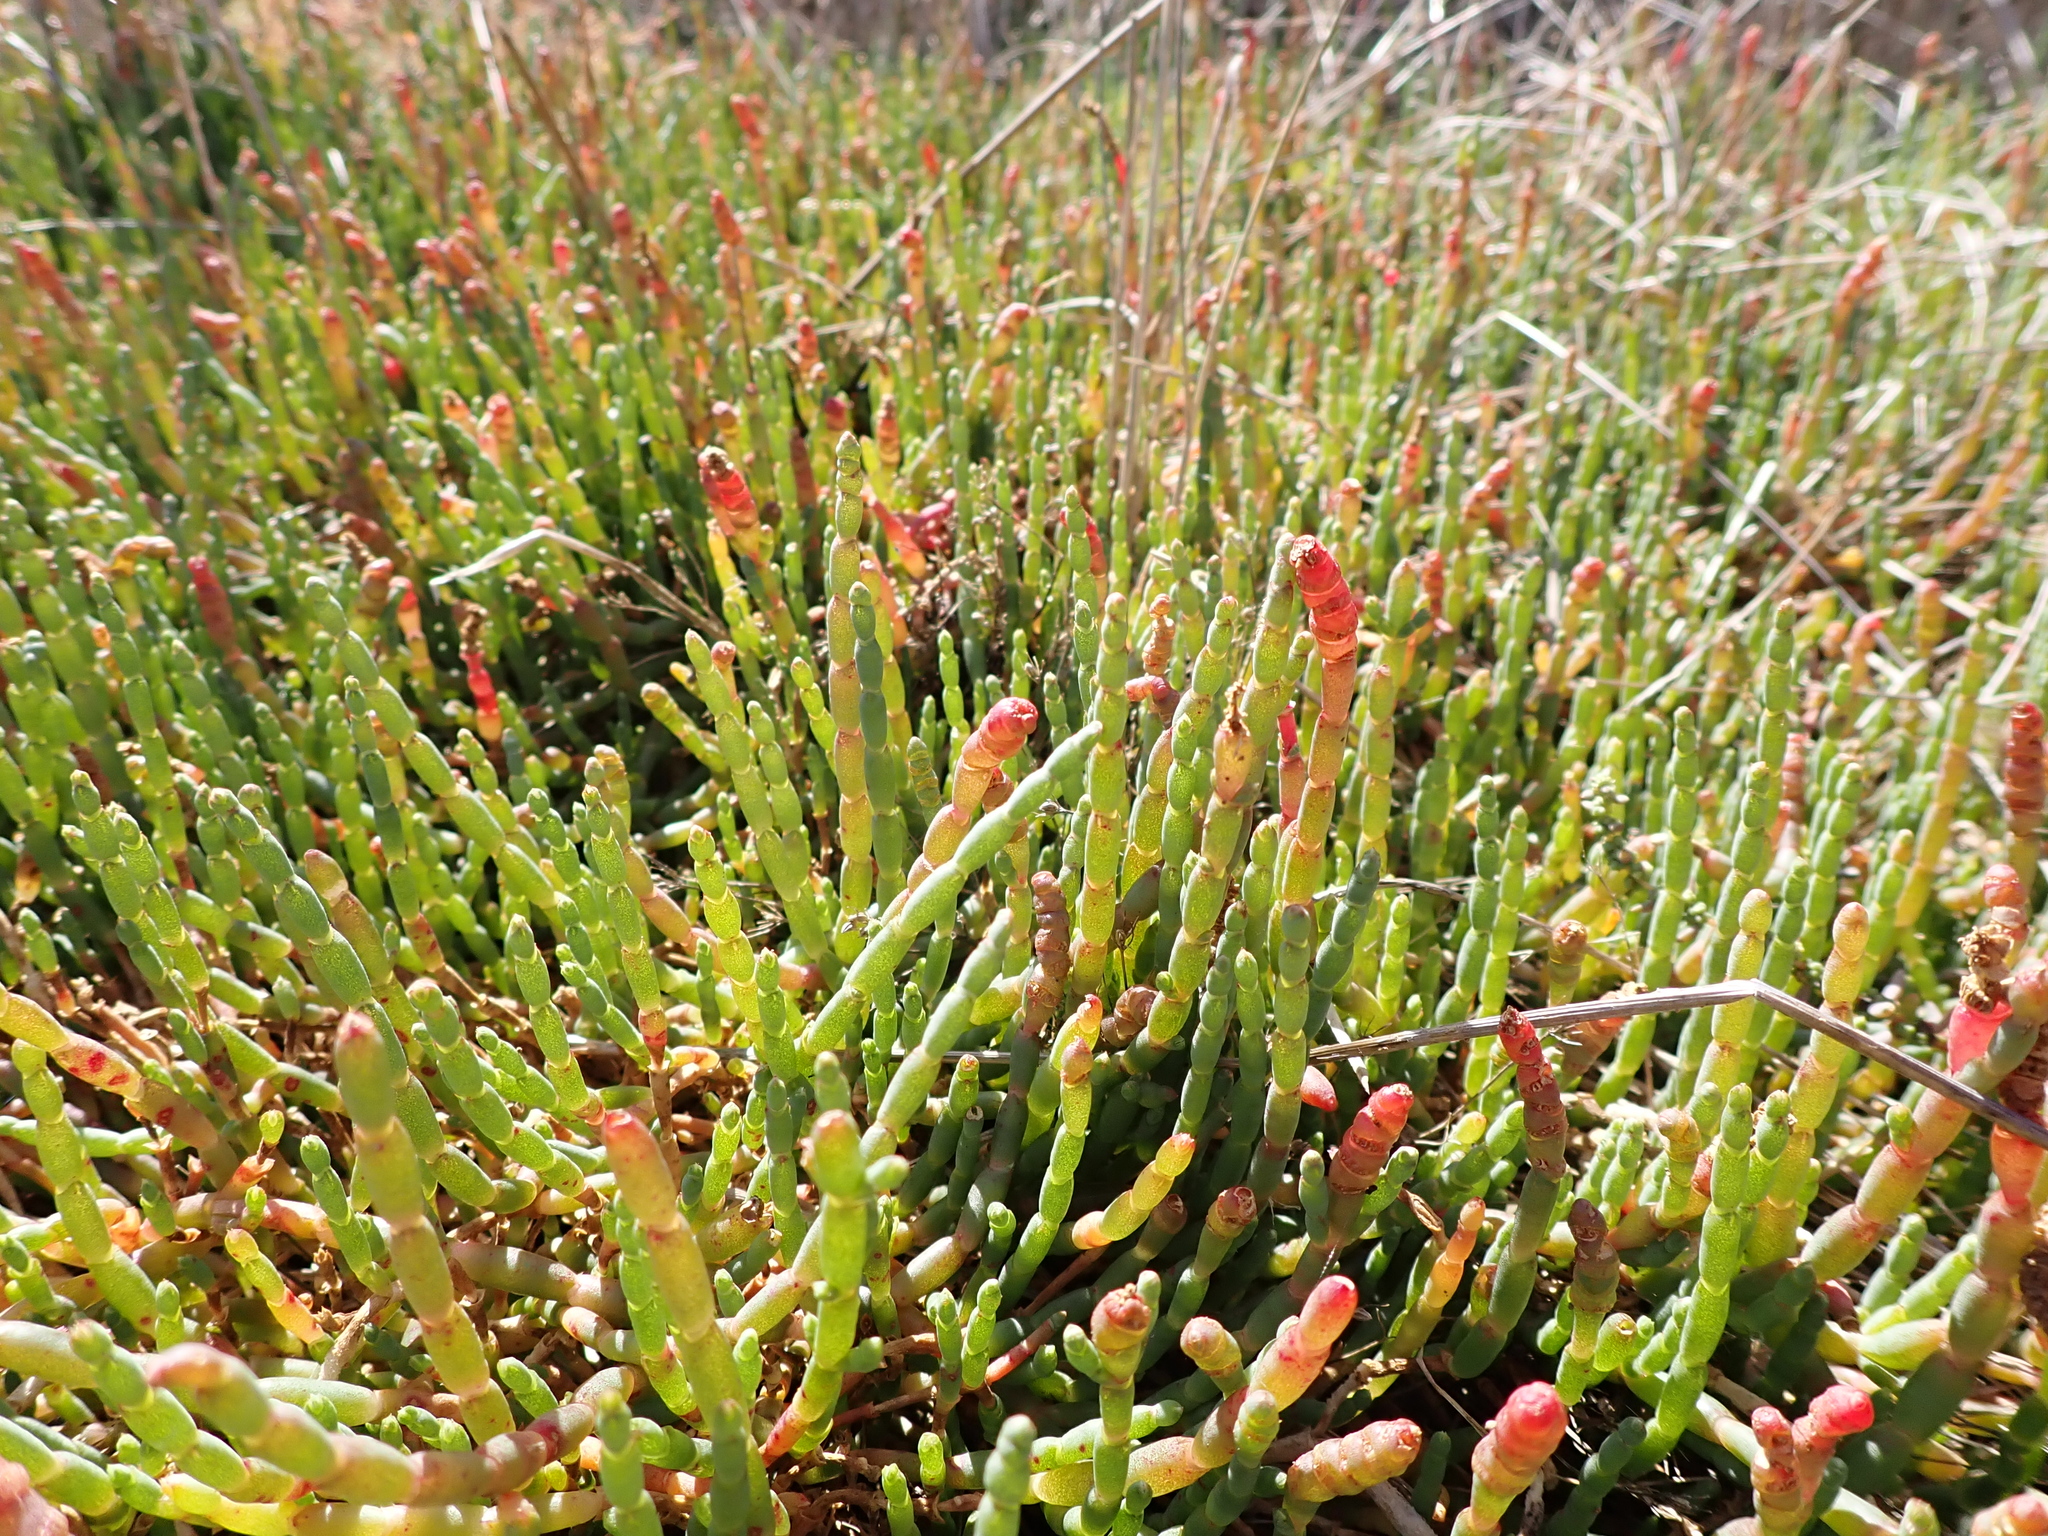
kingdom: Plantae
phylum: Tracheophyta
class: Magnoliopsida
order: Caryophyllales
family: Amaranthaceae
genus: Salicornia
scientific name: Salicornia quinqueflora
